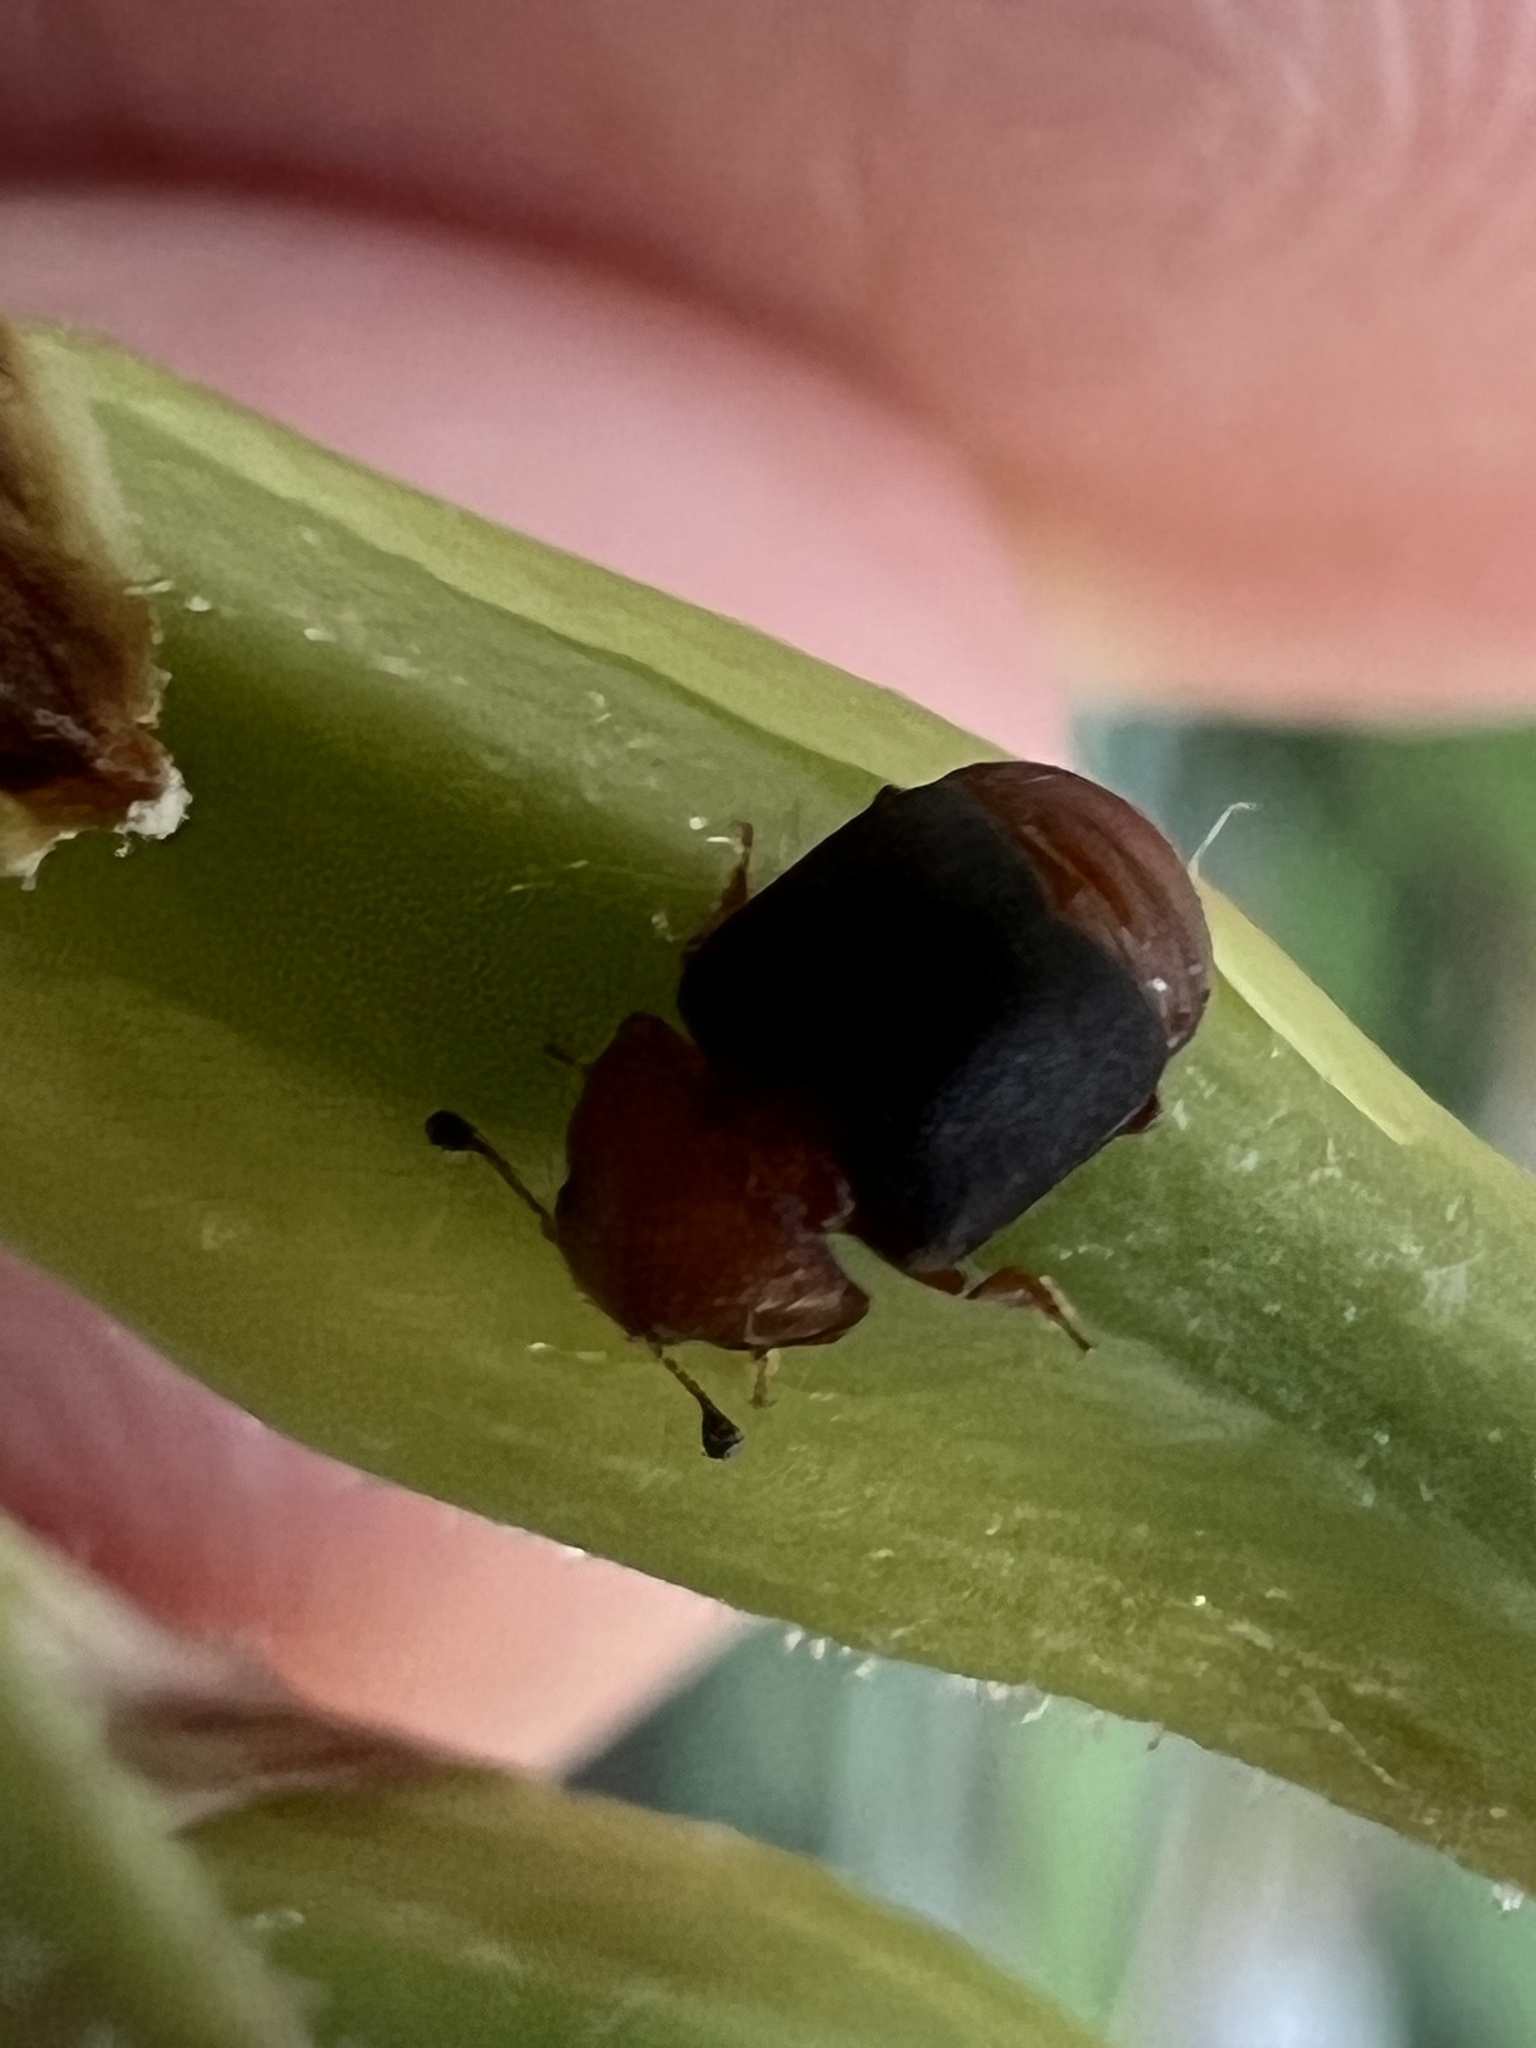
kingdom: Animalia
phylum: Arthropoda
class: Insecta
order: Coleoptera
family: Nitidulidae
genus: Carpophilus
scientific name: Carpophilus
